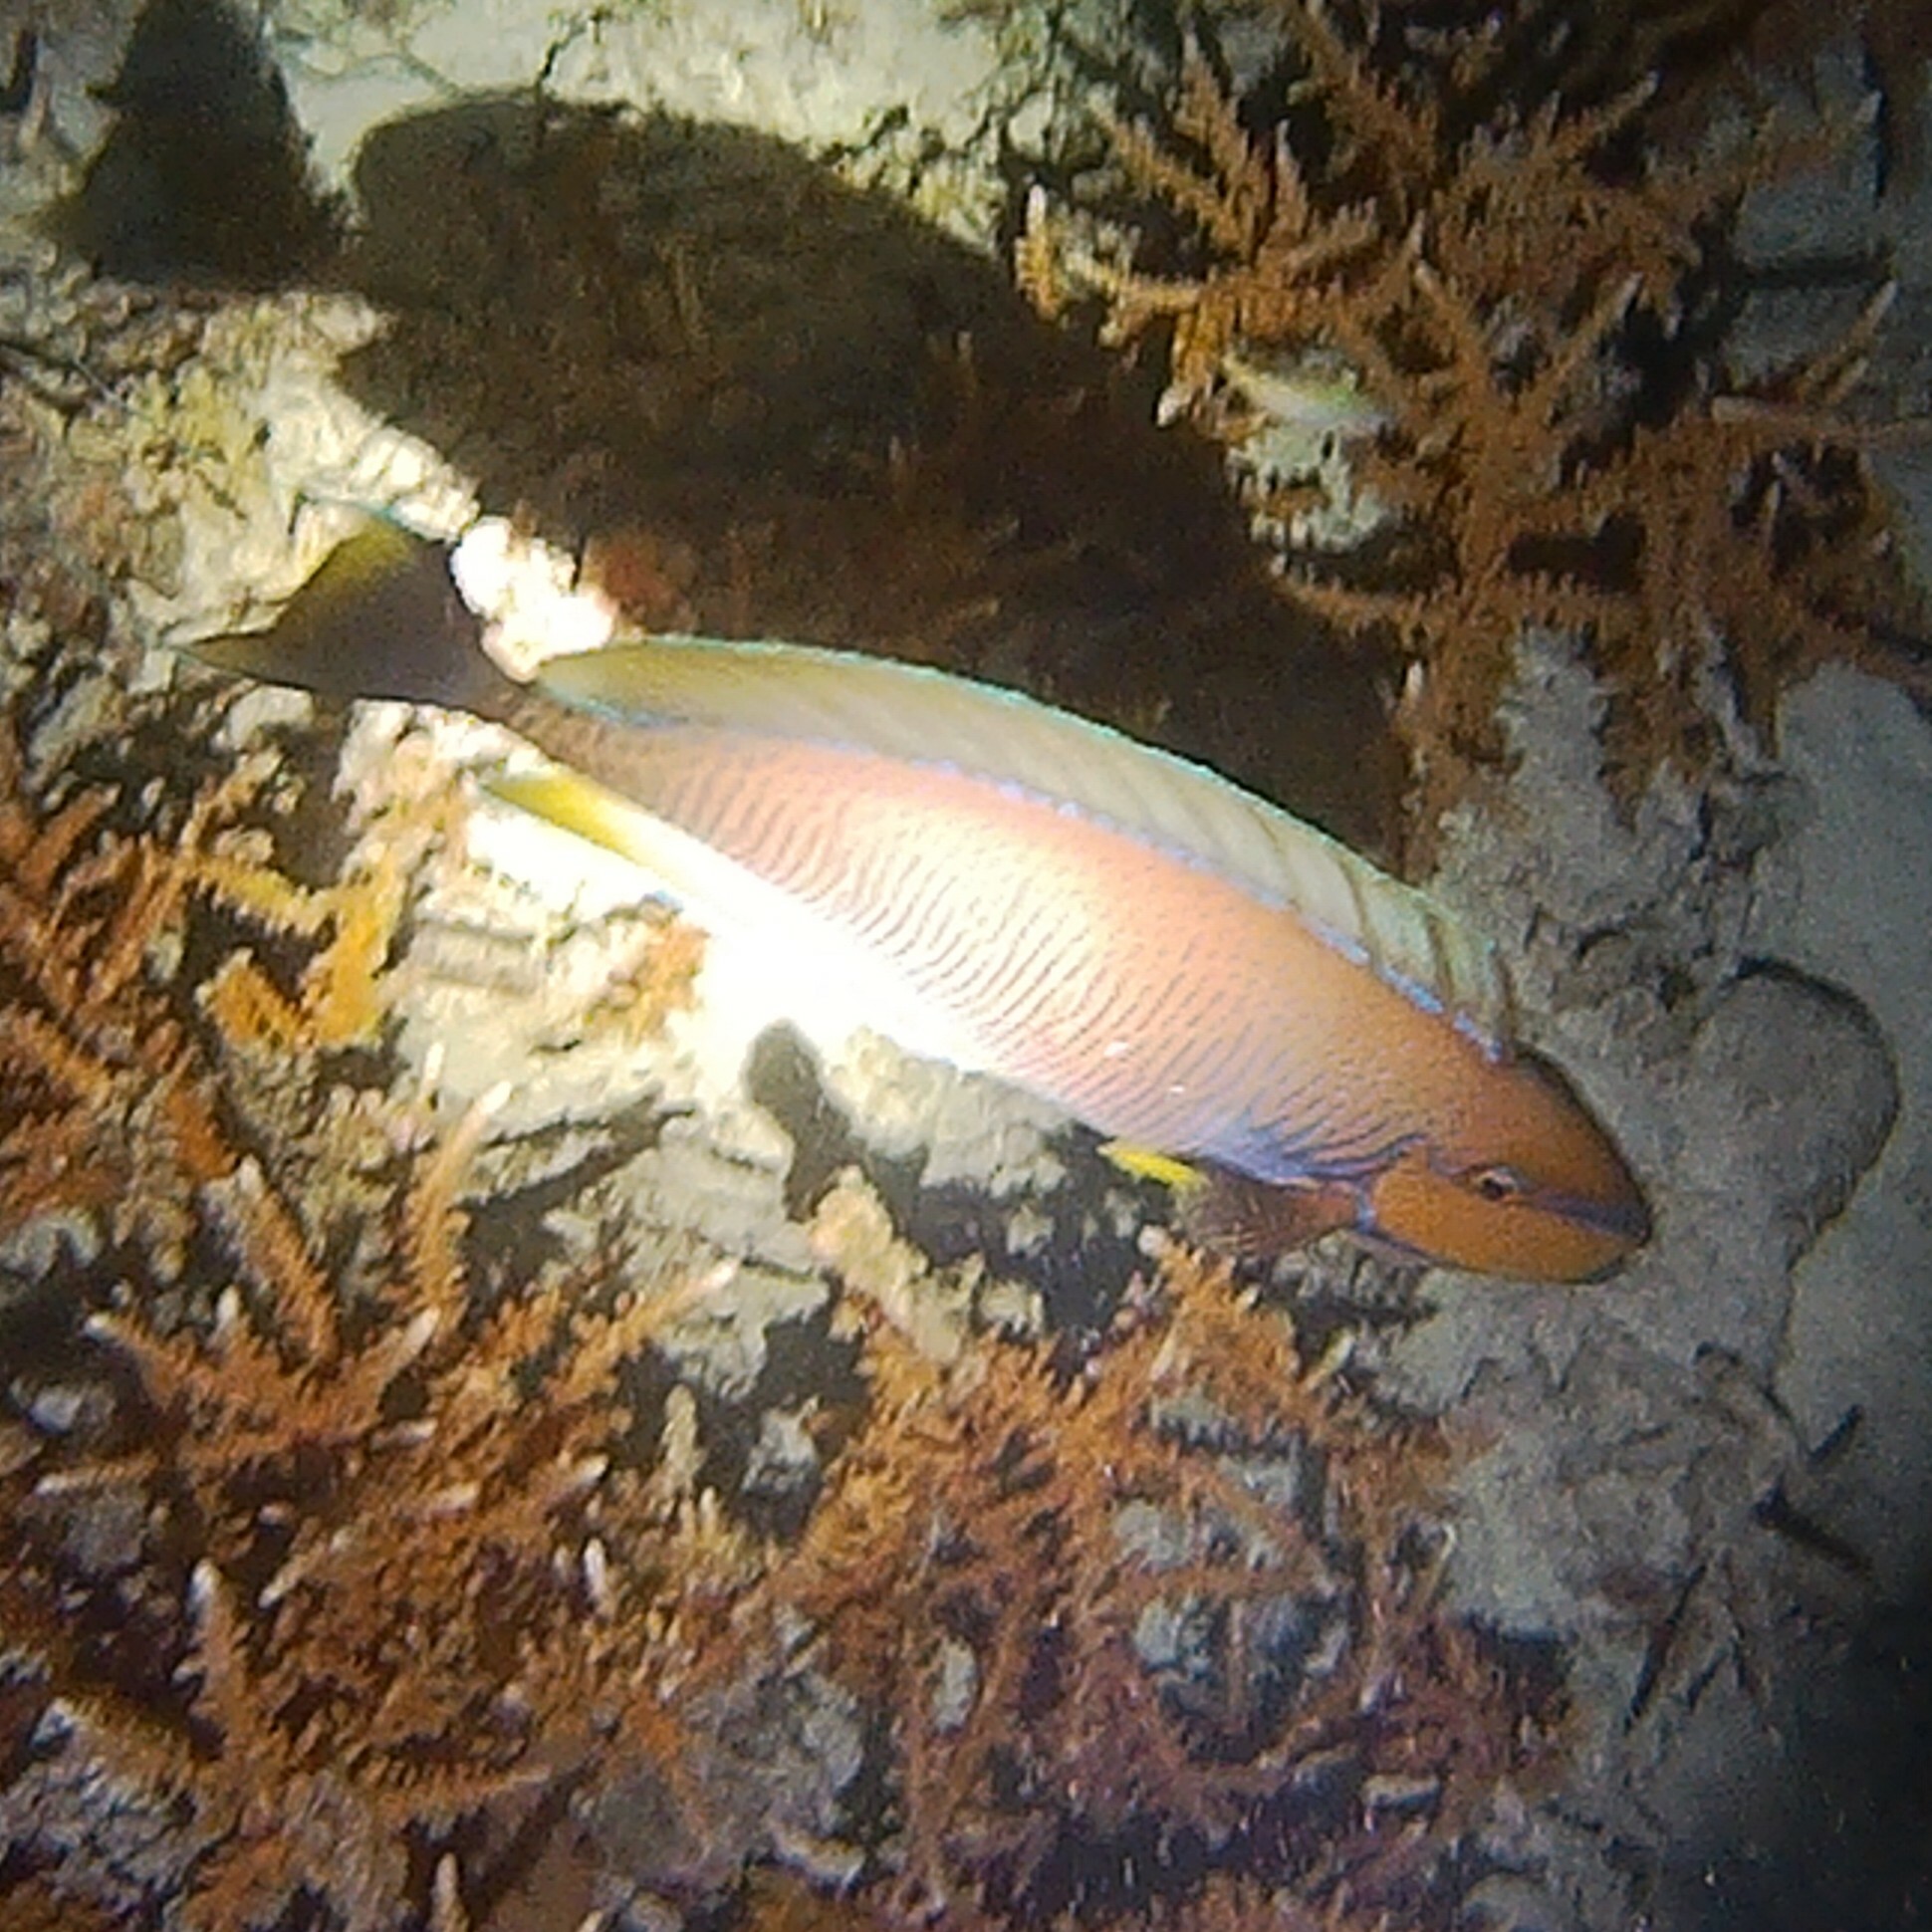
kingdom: Animalia
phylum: Chordata
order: Perciformes
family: Acanthuridae
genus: Naso
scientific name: Naso vlamingii
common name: Big-nose unicorn
